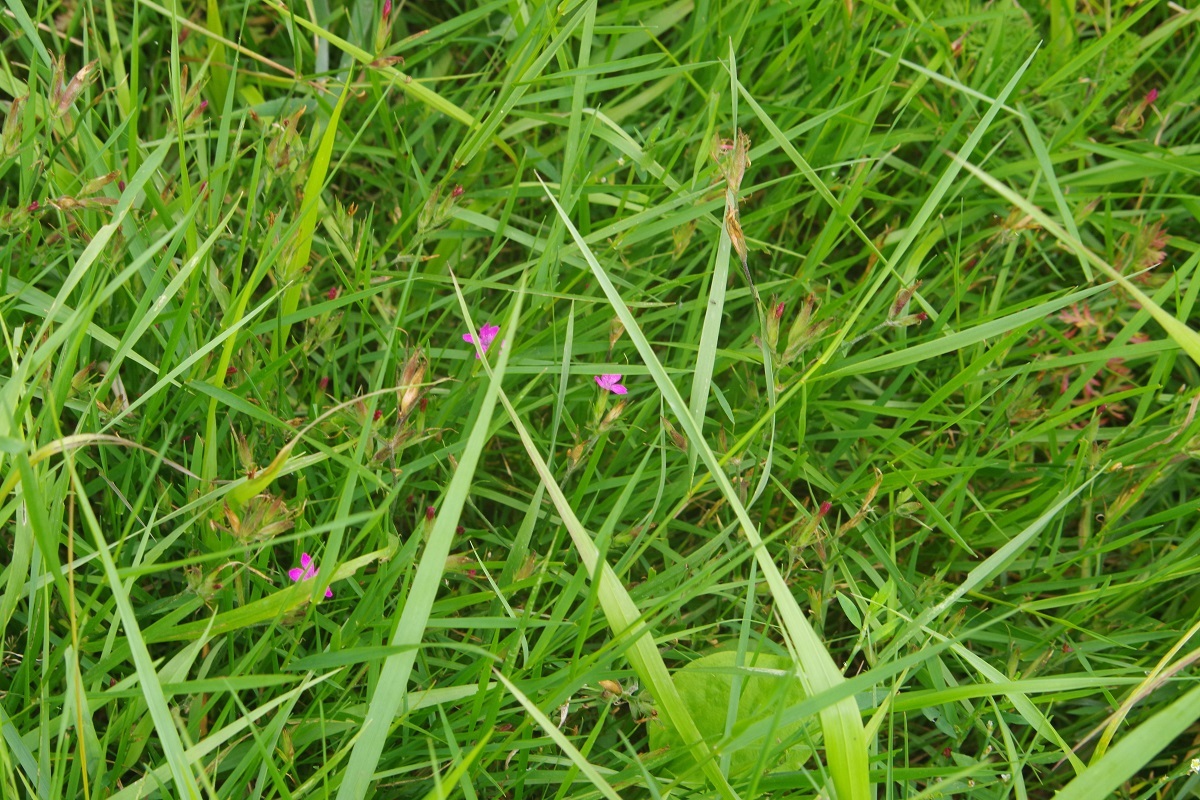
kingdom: Plantae
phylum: Tracheophyta
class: Magnoliopsida
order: Caryophyllales
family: Caryophyllaceae
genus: Dianthus
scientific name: Dianthus armeria
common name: Deptford pink
